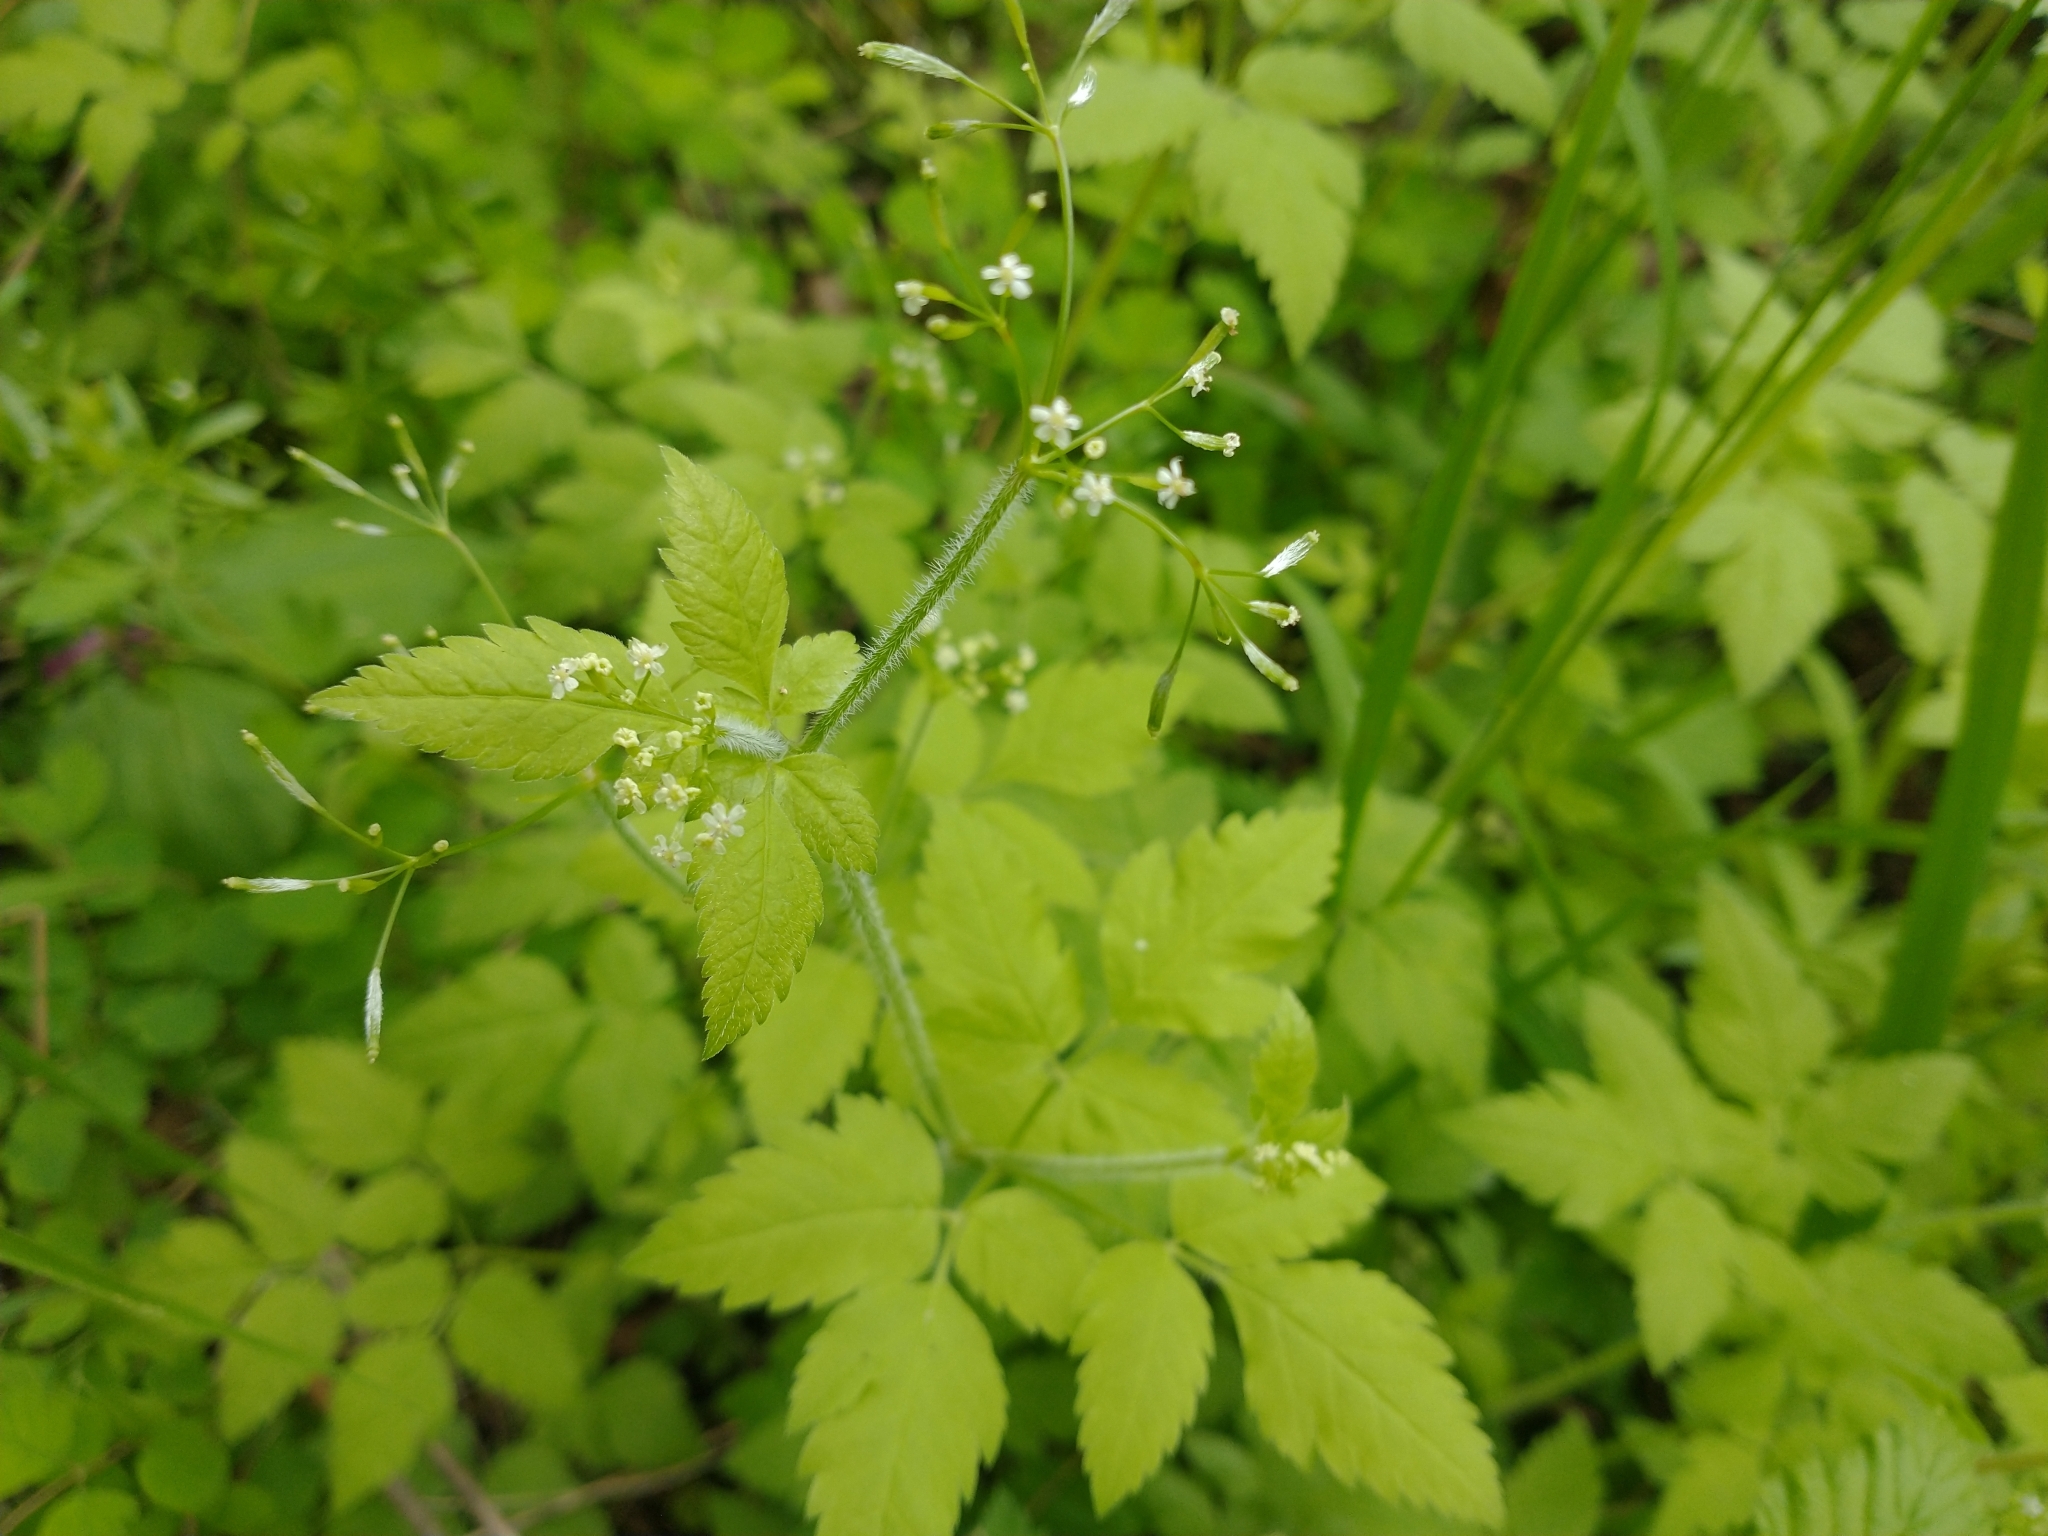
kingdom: Plantae
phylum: Tracheophyta
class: Magnoliopsida
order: Apiales
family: Apiaceae
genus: Osmorhiza
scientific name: Osmorhiza berteroi
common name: Mountain sweet cicely
